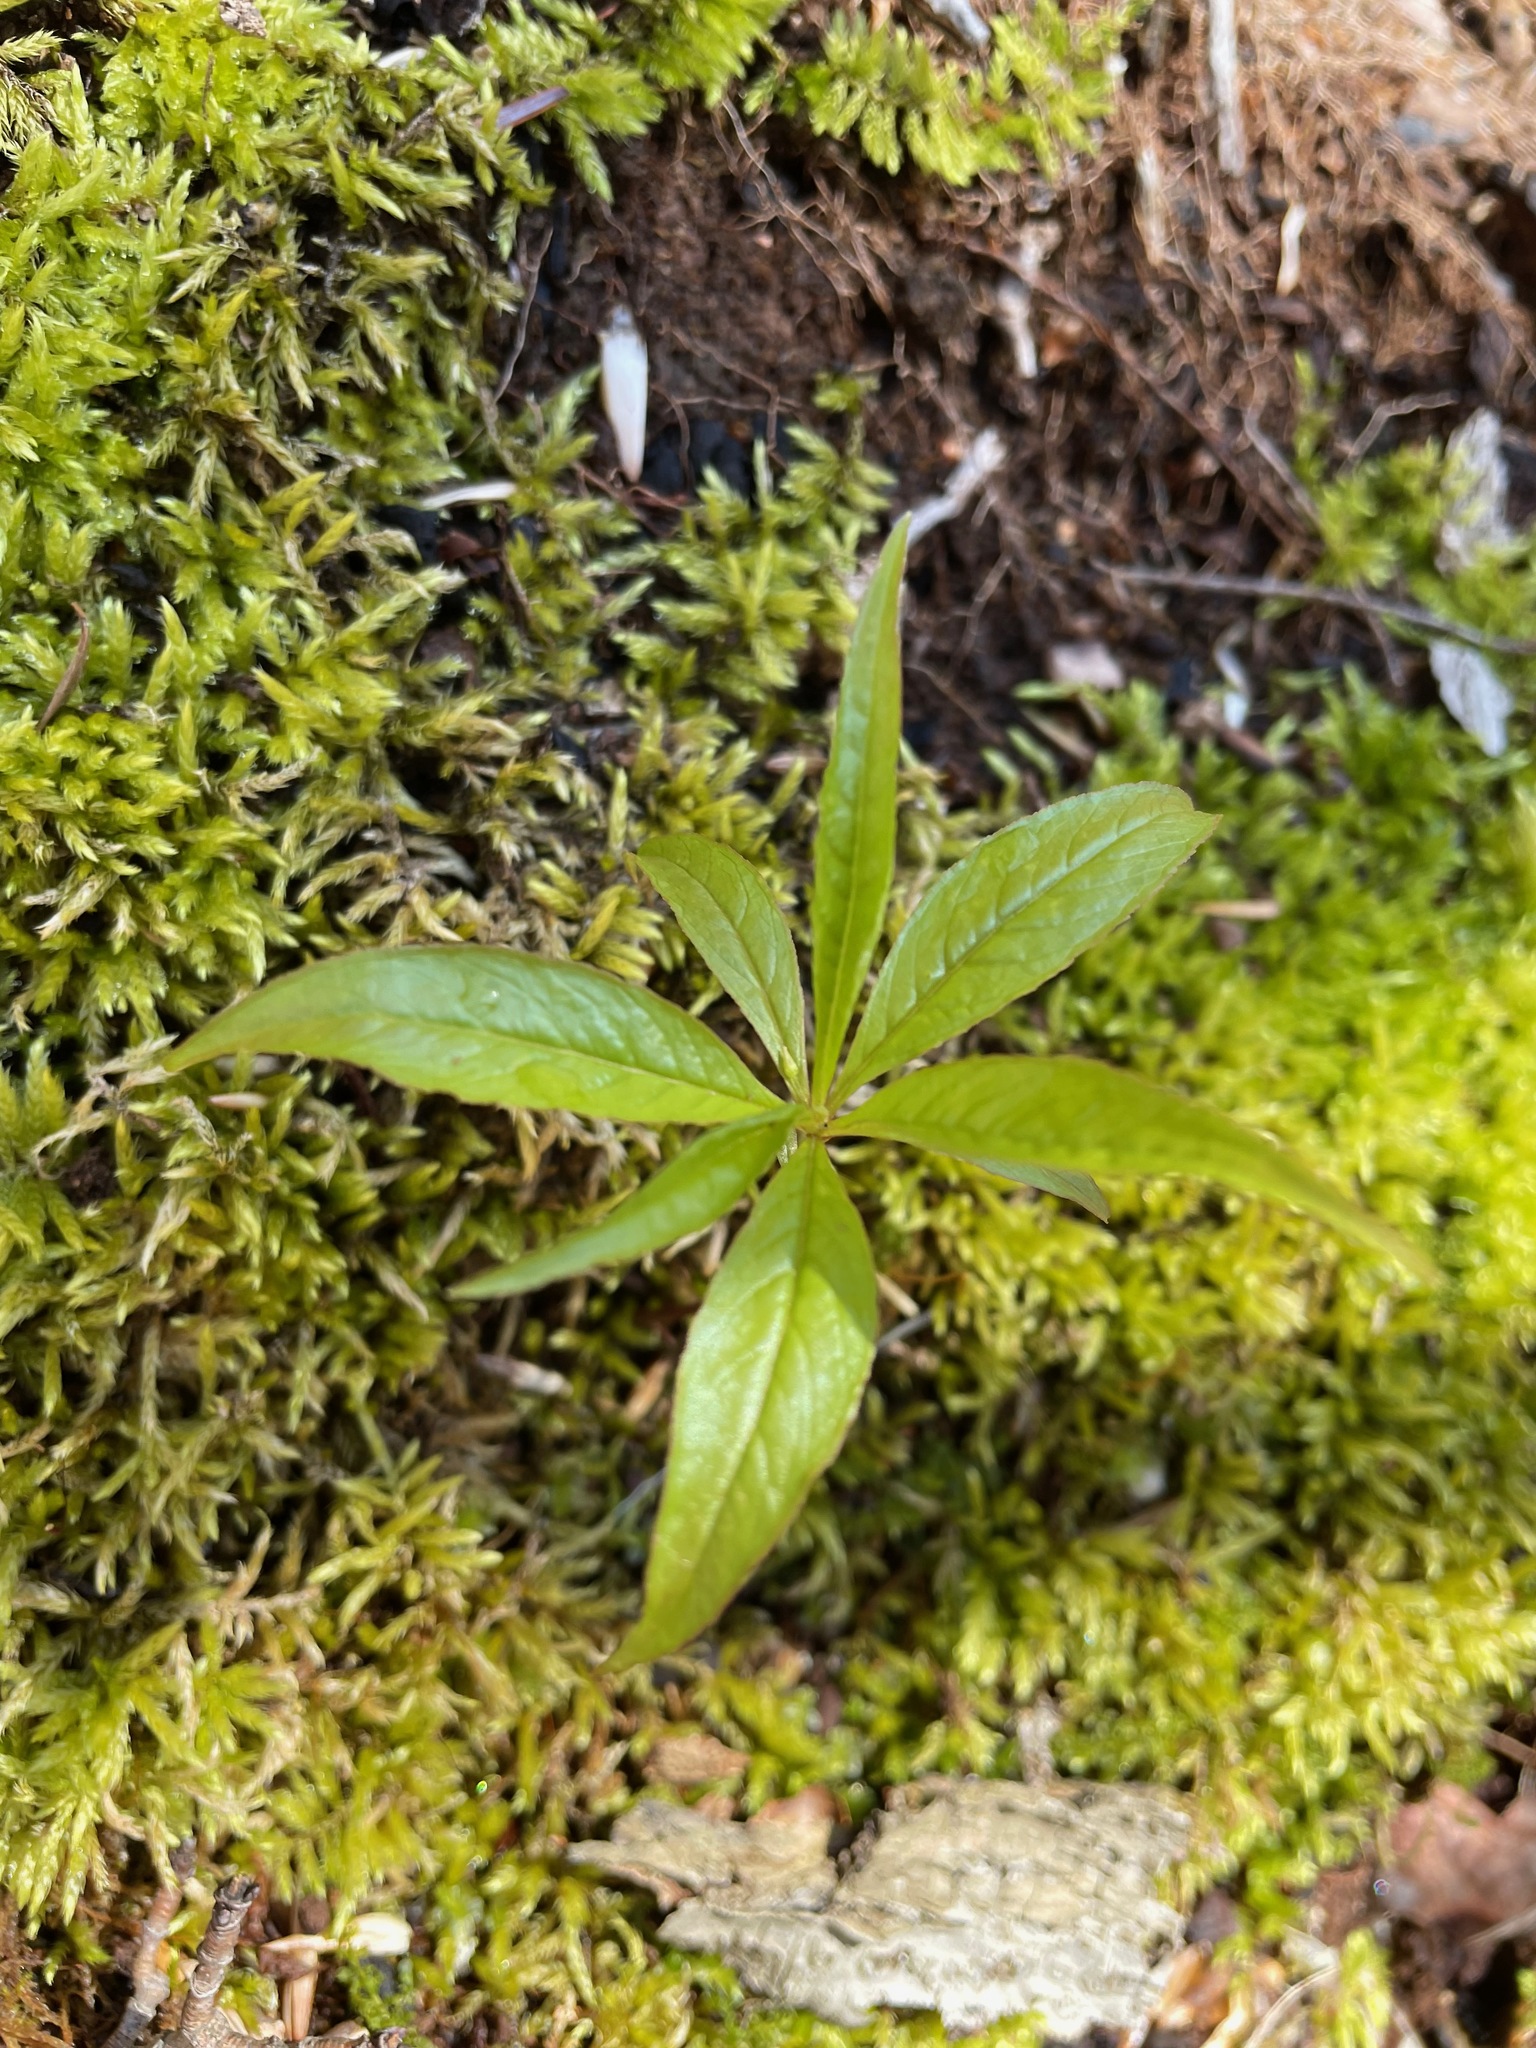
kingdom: Plantae
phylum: Tracheophyta
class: Magnoliopsida
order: Ericales
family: Primulaceae
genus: Lysimachia
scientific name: Lysimachia borealis
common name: American starflower
